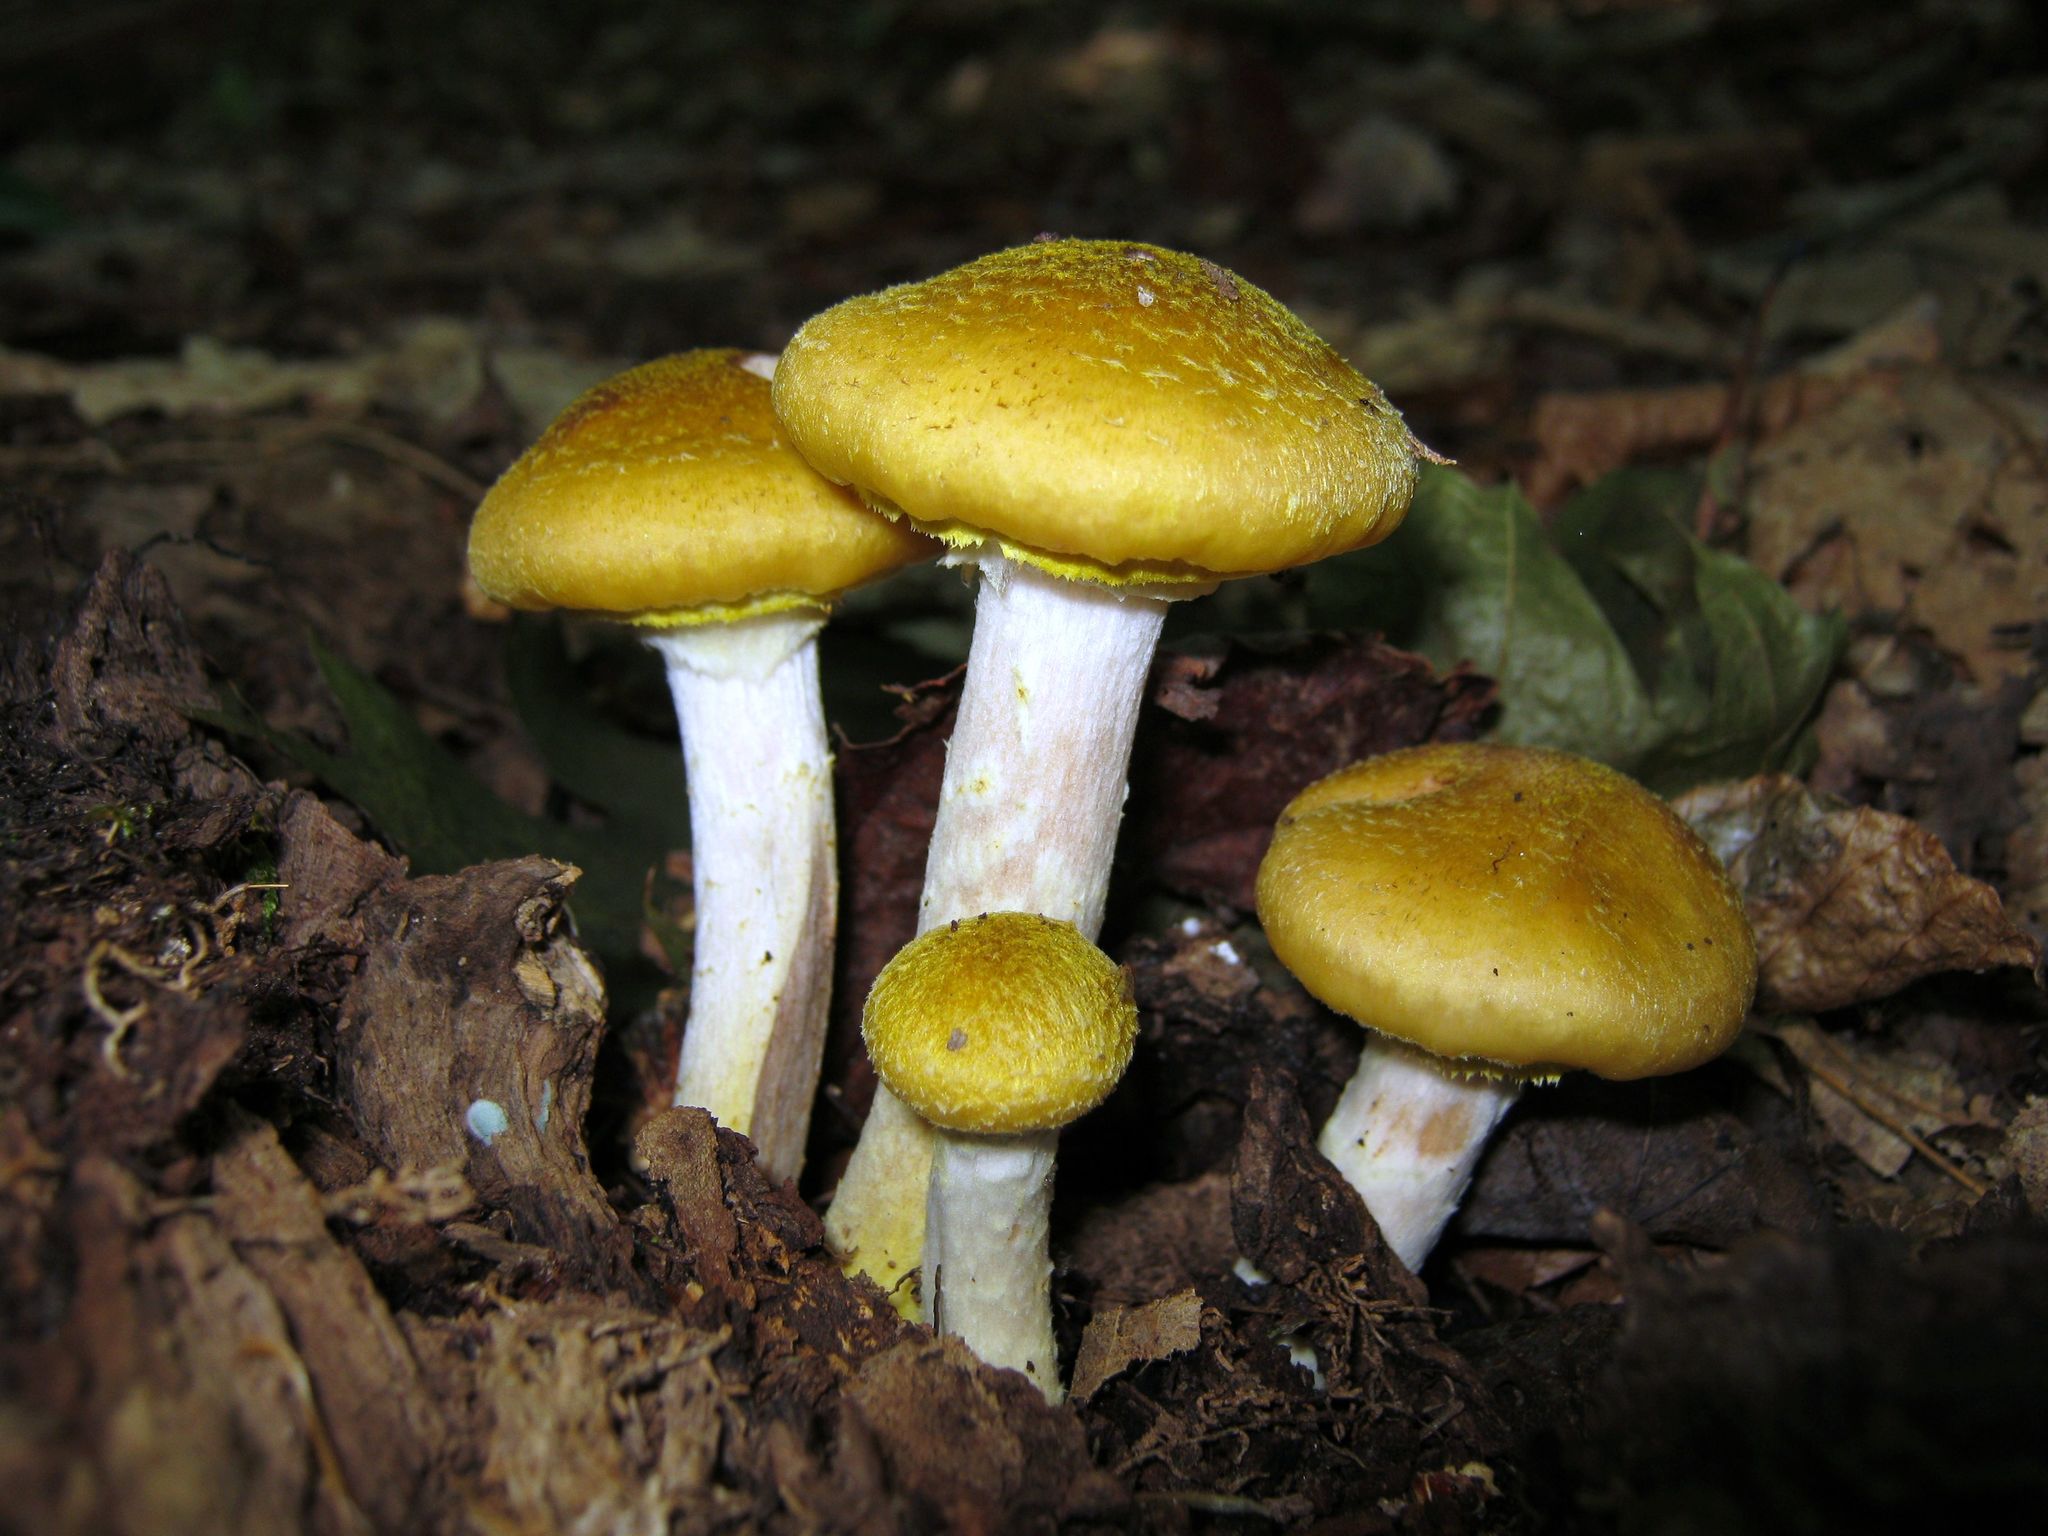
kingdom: Fungi
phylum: Basidiomycota
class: Agaricomycetes
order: Agaricales
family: Physalacriaceae
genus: Armillaria
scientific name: Armillaria mellea
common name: Honey fungus
